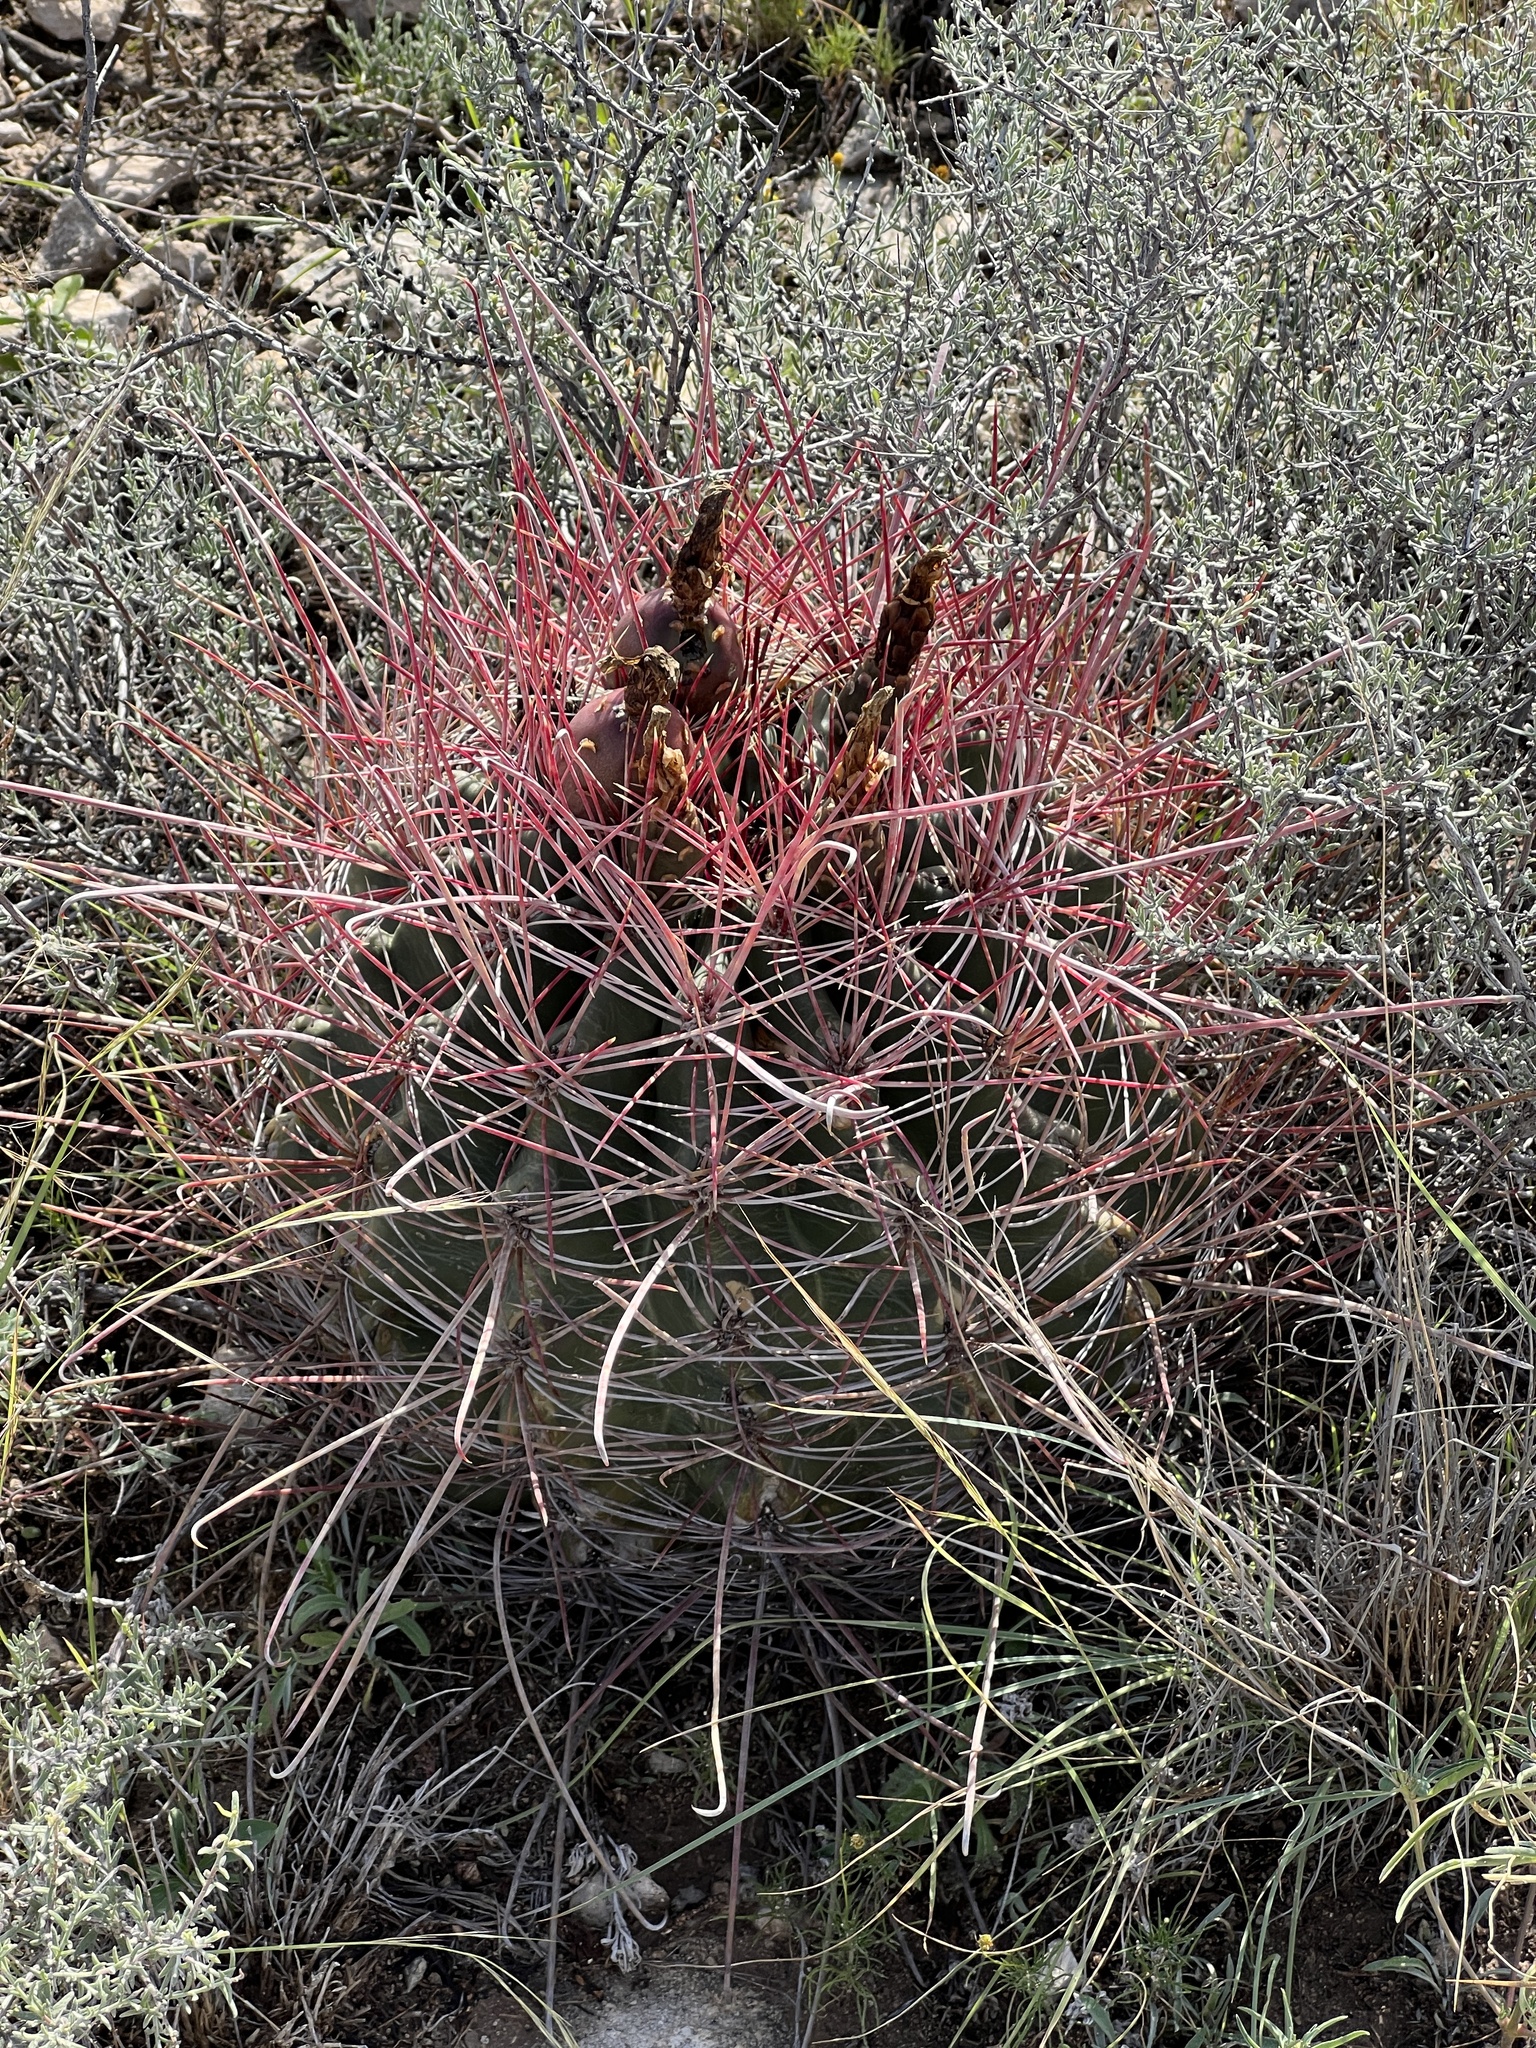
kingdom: Plantae
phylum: Tracheophyta
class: Magnoliopsida
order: Caryophyllales
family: Cactaceae
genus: Bisnaga
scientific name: Bisnaga hamatacantha
